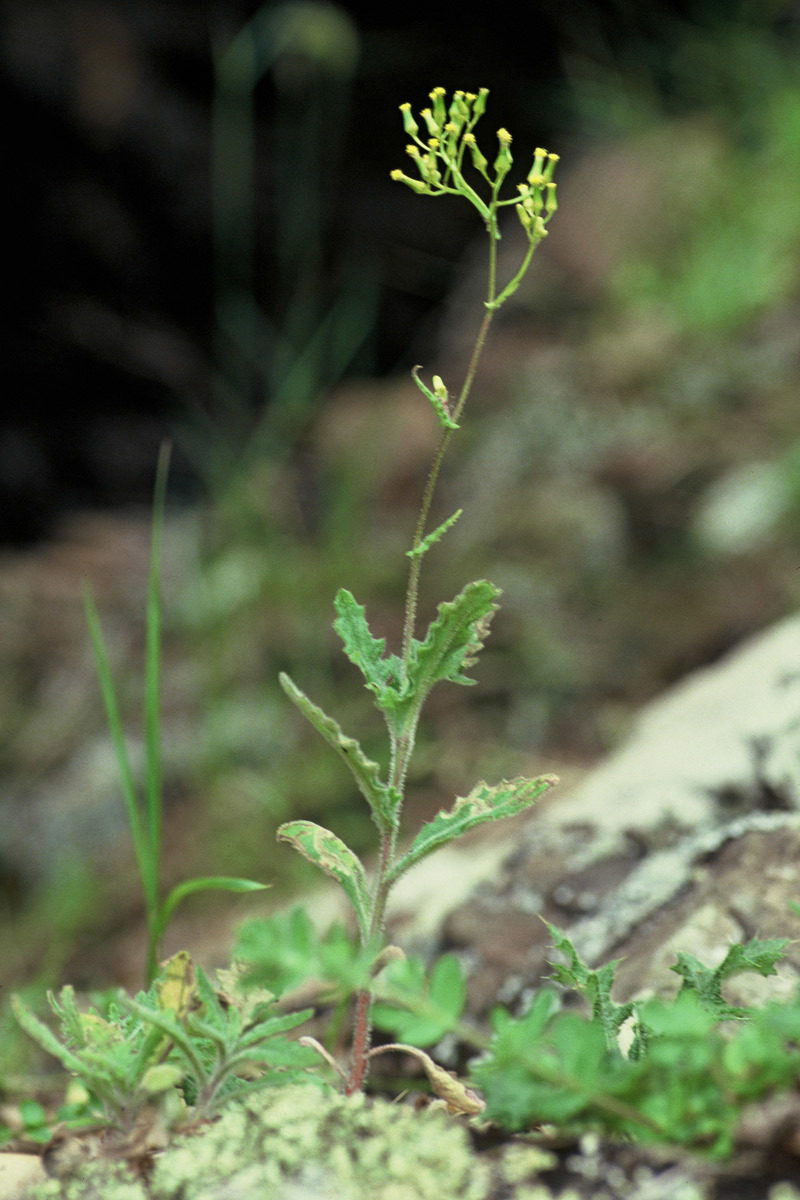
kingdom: Plantae
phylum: Tracheophyta
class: Magnoliopsida
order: Asterales
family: Asteraceae
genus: Senecio
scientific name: Senecio scaberulus
